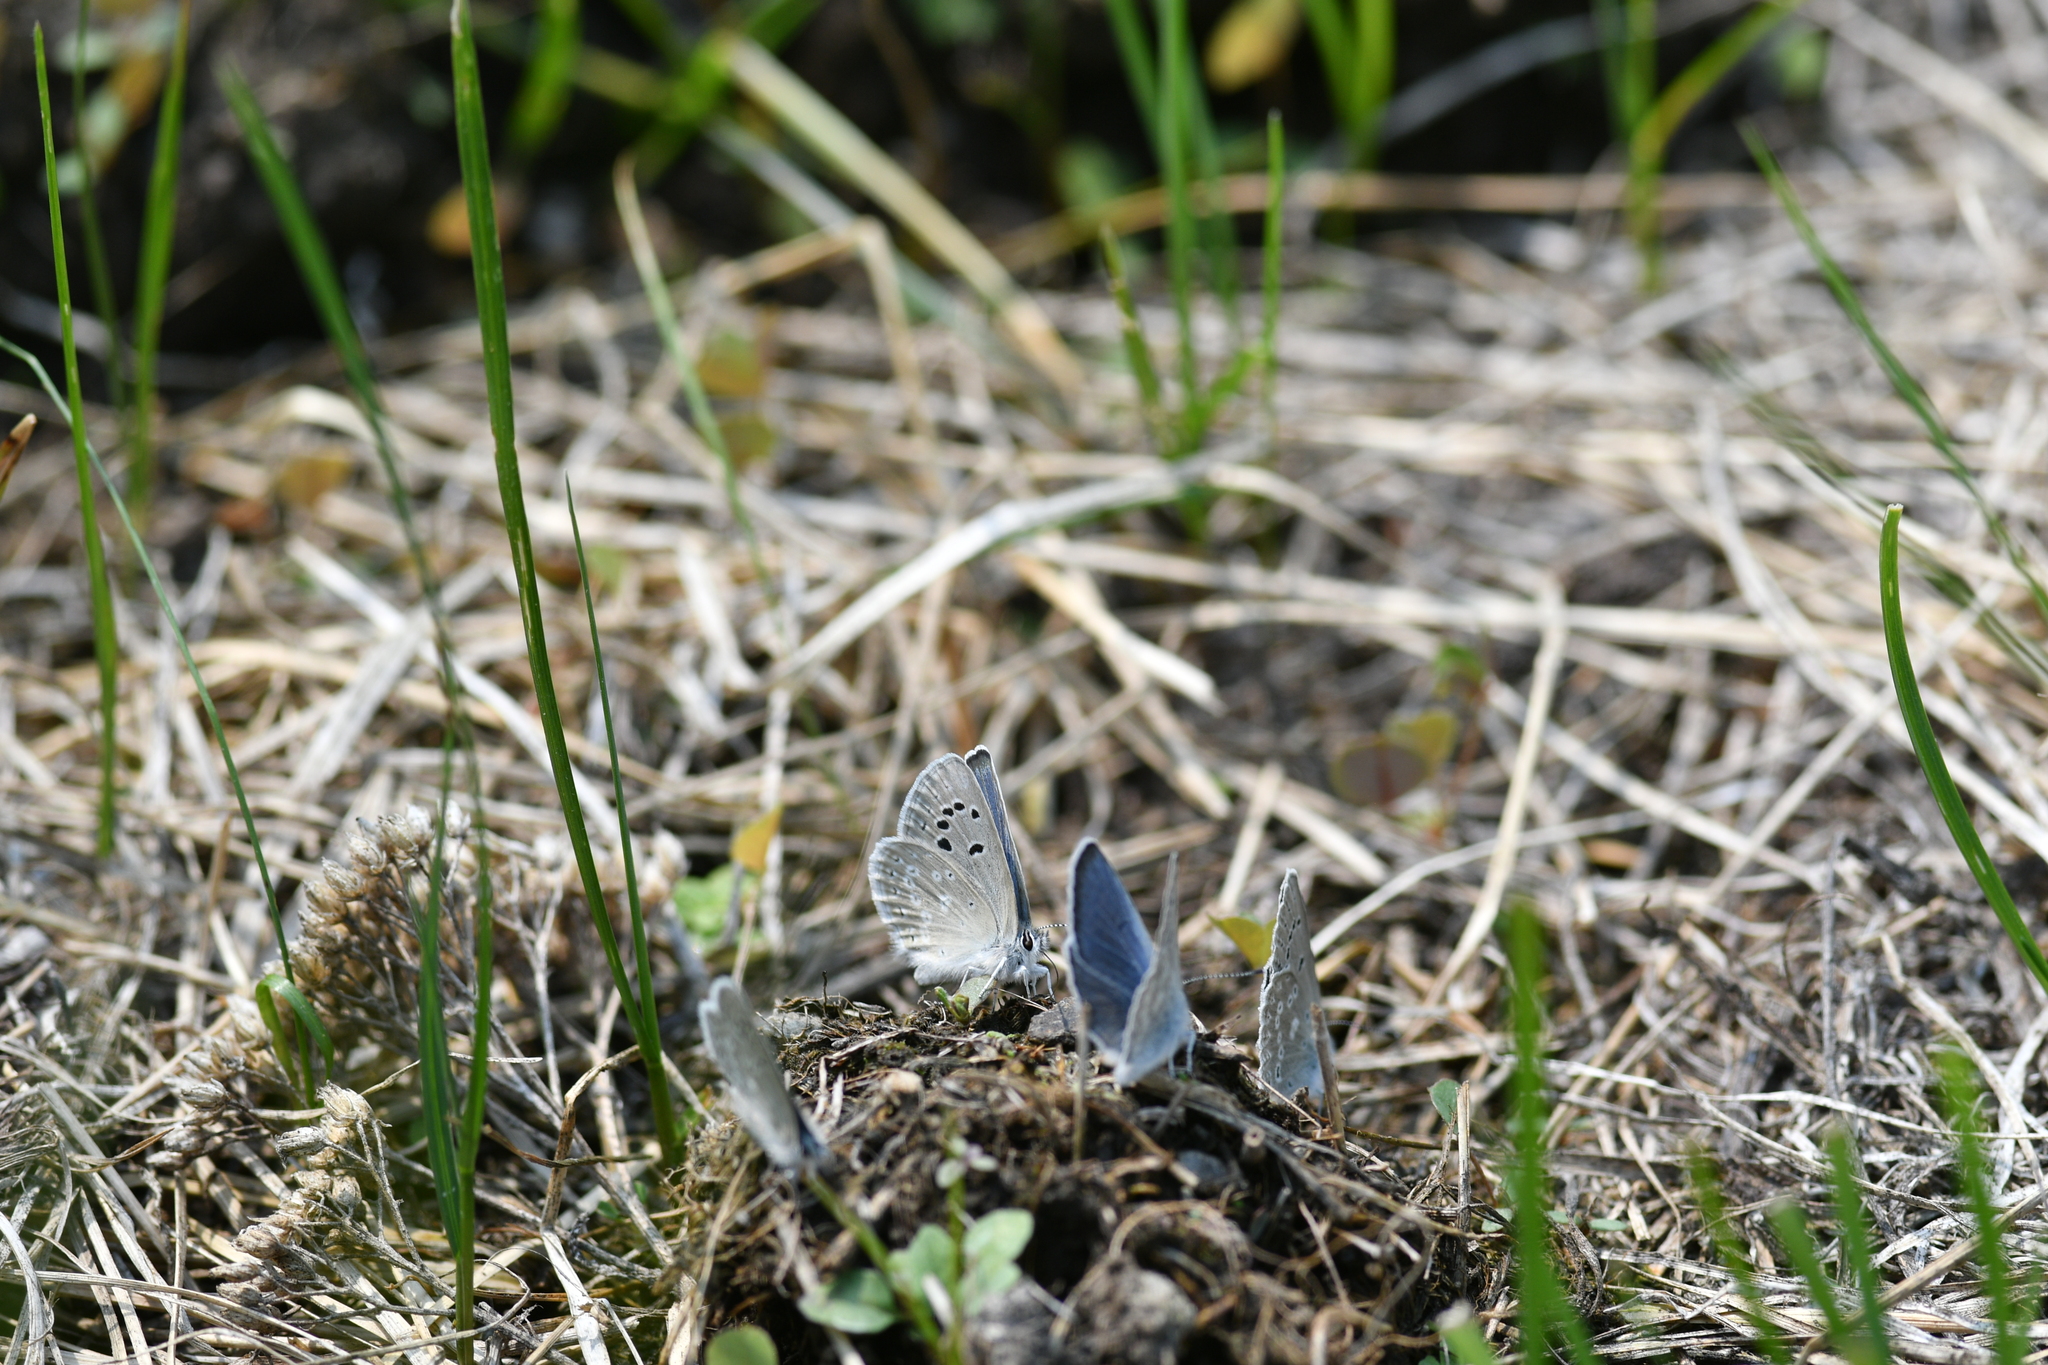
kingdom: Animalia
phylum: Arthropoda
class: Insecta
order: Lepidoptera
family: Lycaenidae
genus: Icaricia
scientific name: Icaricia icarioides
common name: Boisduval's blue
